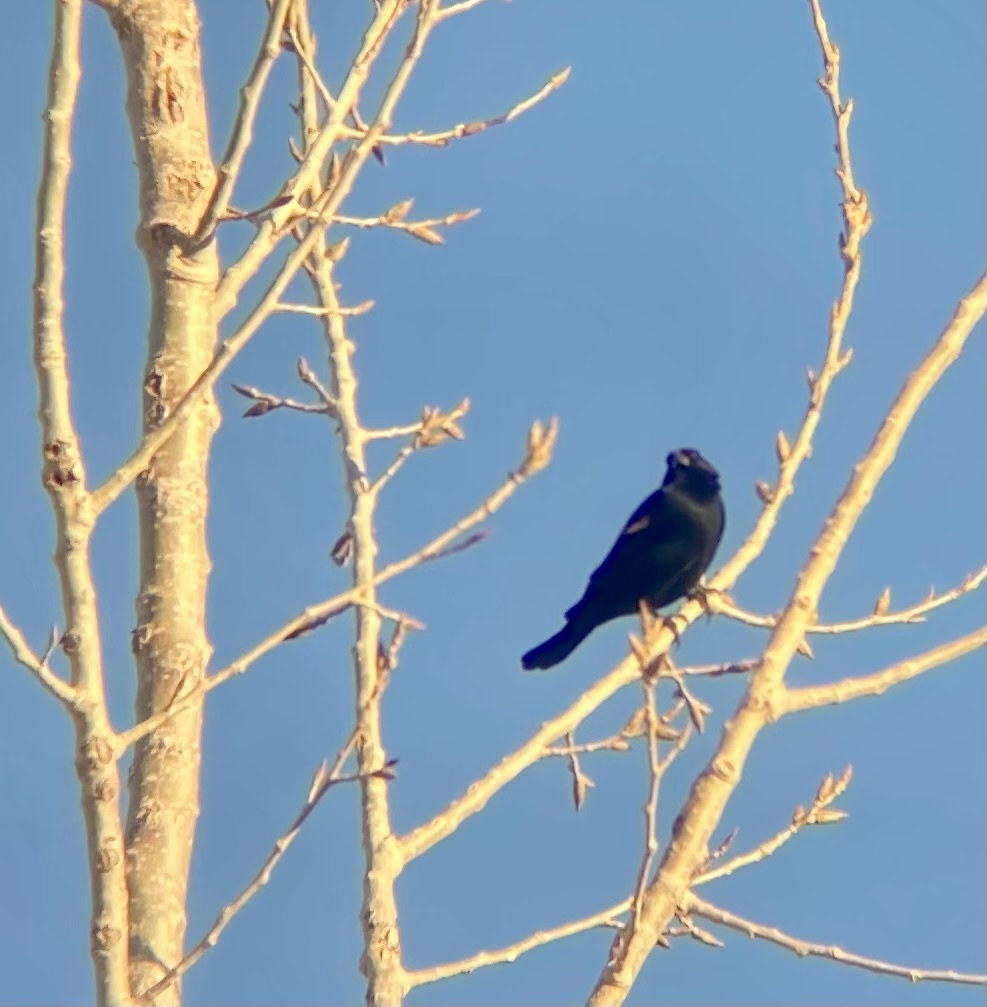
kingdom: Animalia
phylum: Chordata
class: Aves
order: Passeriformes
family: Icteridae
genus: Agelaius
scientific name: Agelaius phoeniceus
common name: Red-winged blackbird
